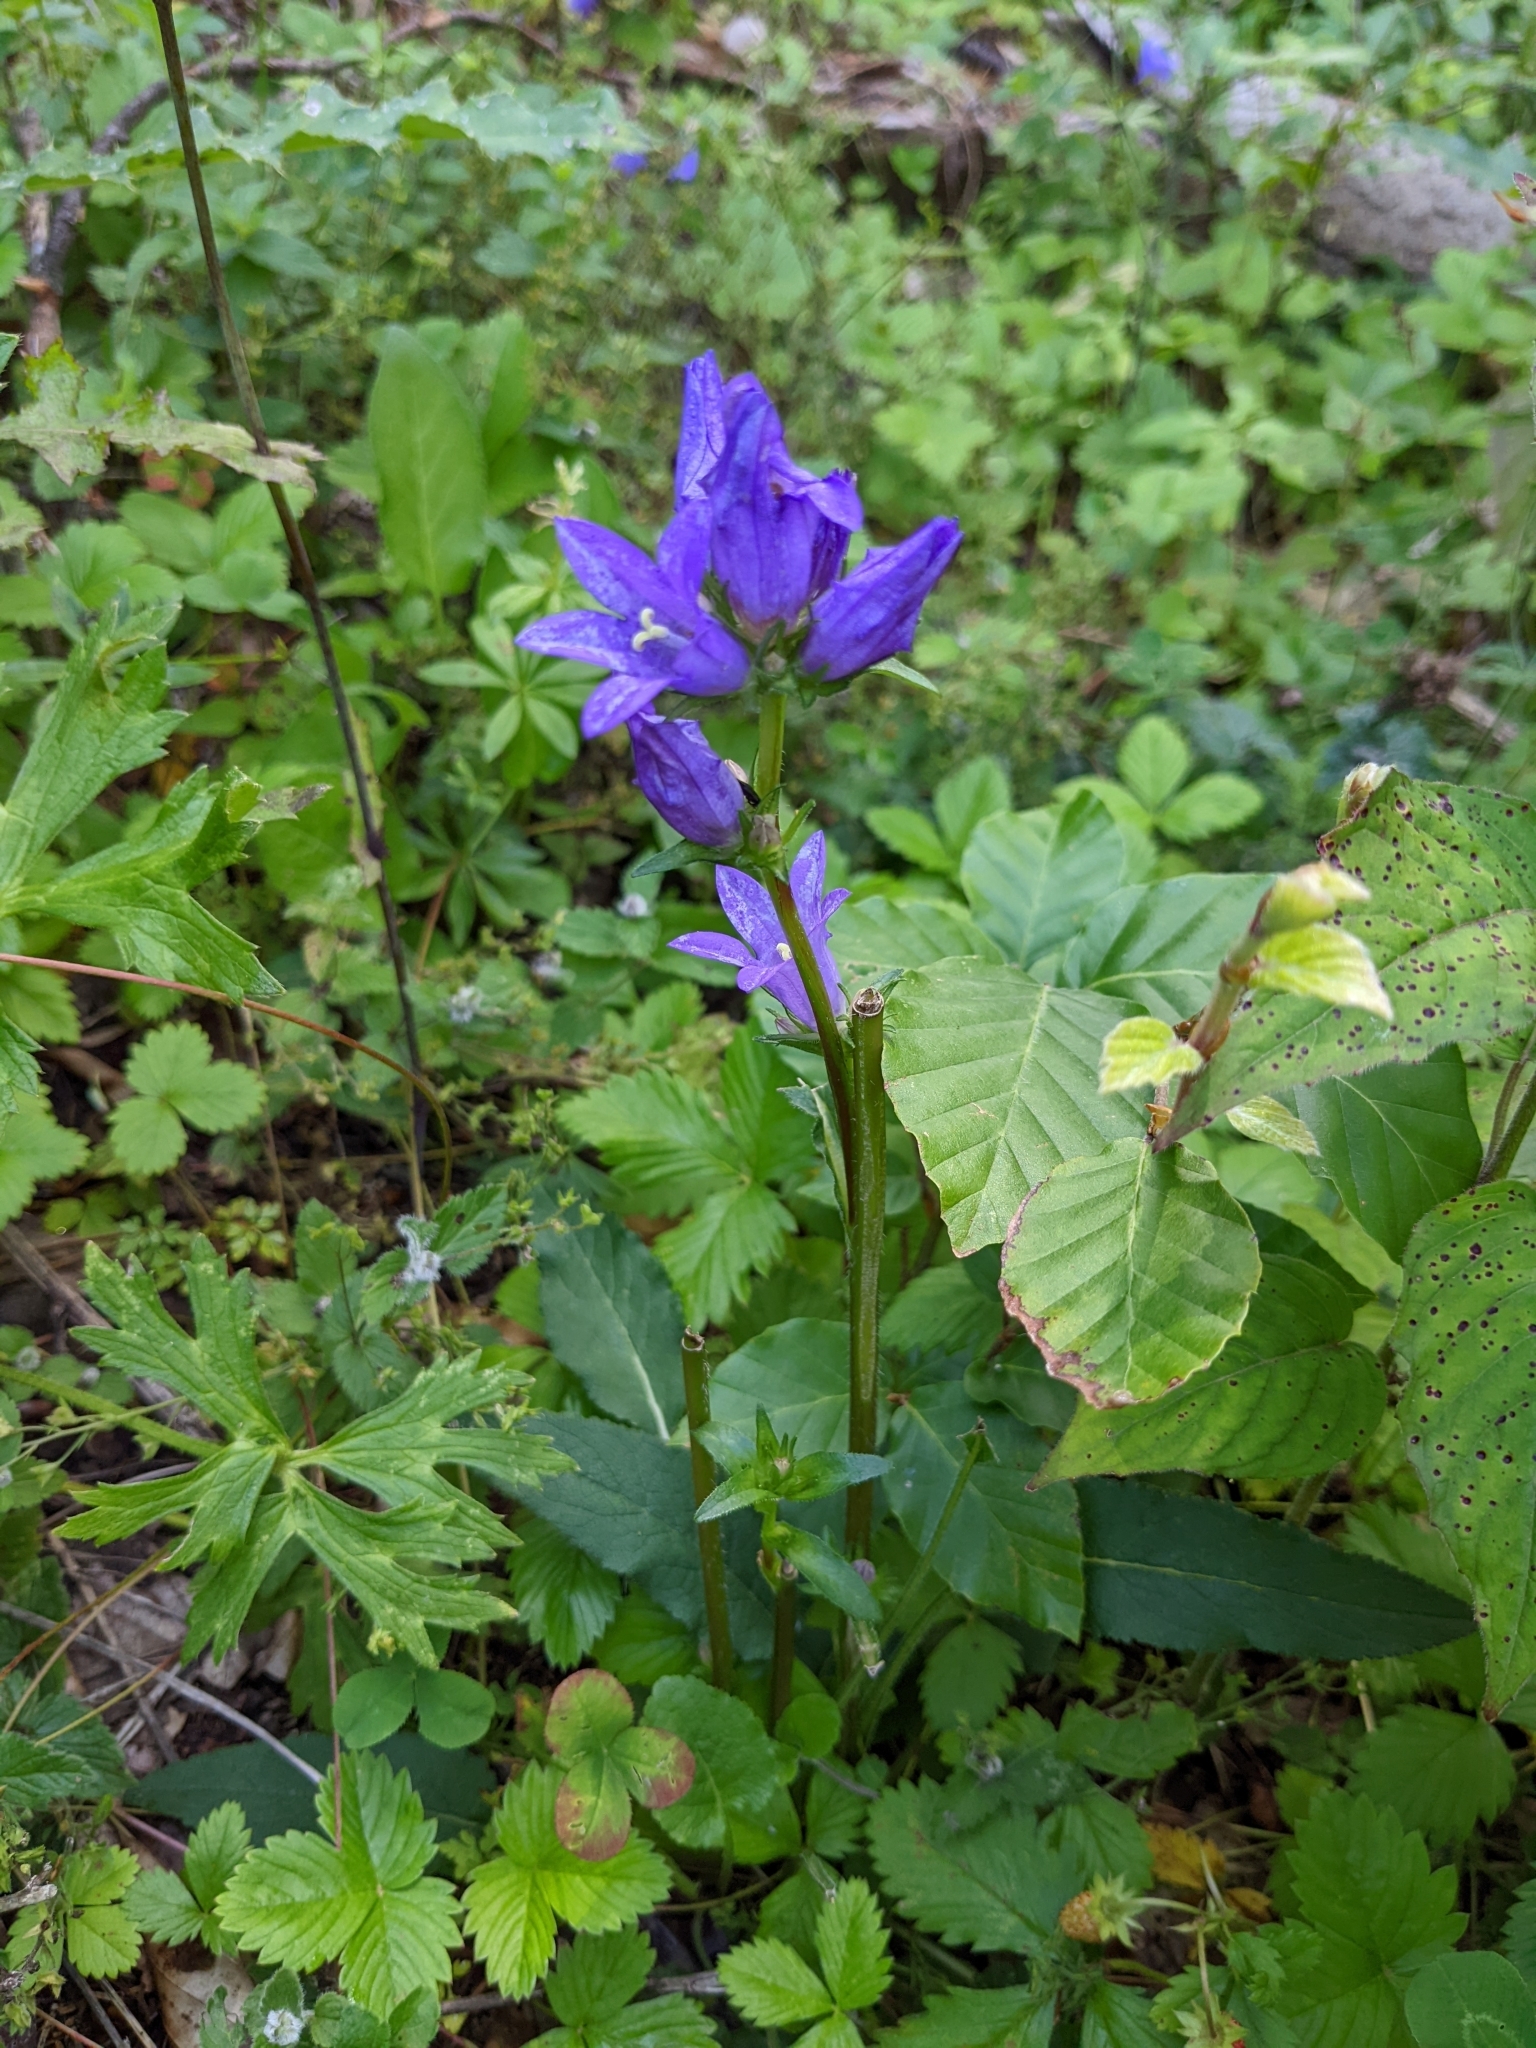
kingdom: Plantae
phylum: Tracheophyta
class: Magnoliopsida
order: Asterales
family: Campanulaceae
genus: Campanula
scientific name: Campanula glomerata
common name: Clustered bellflower
